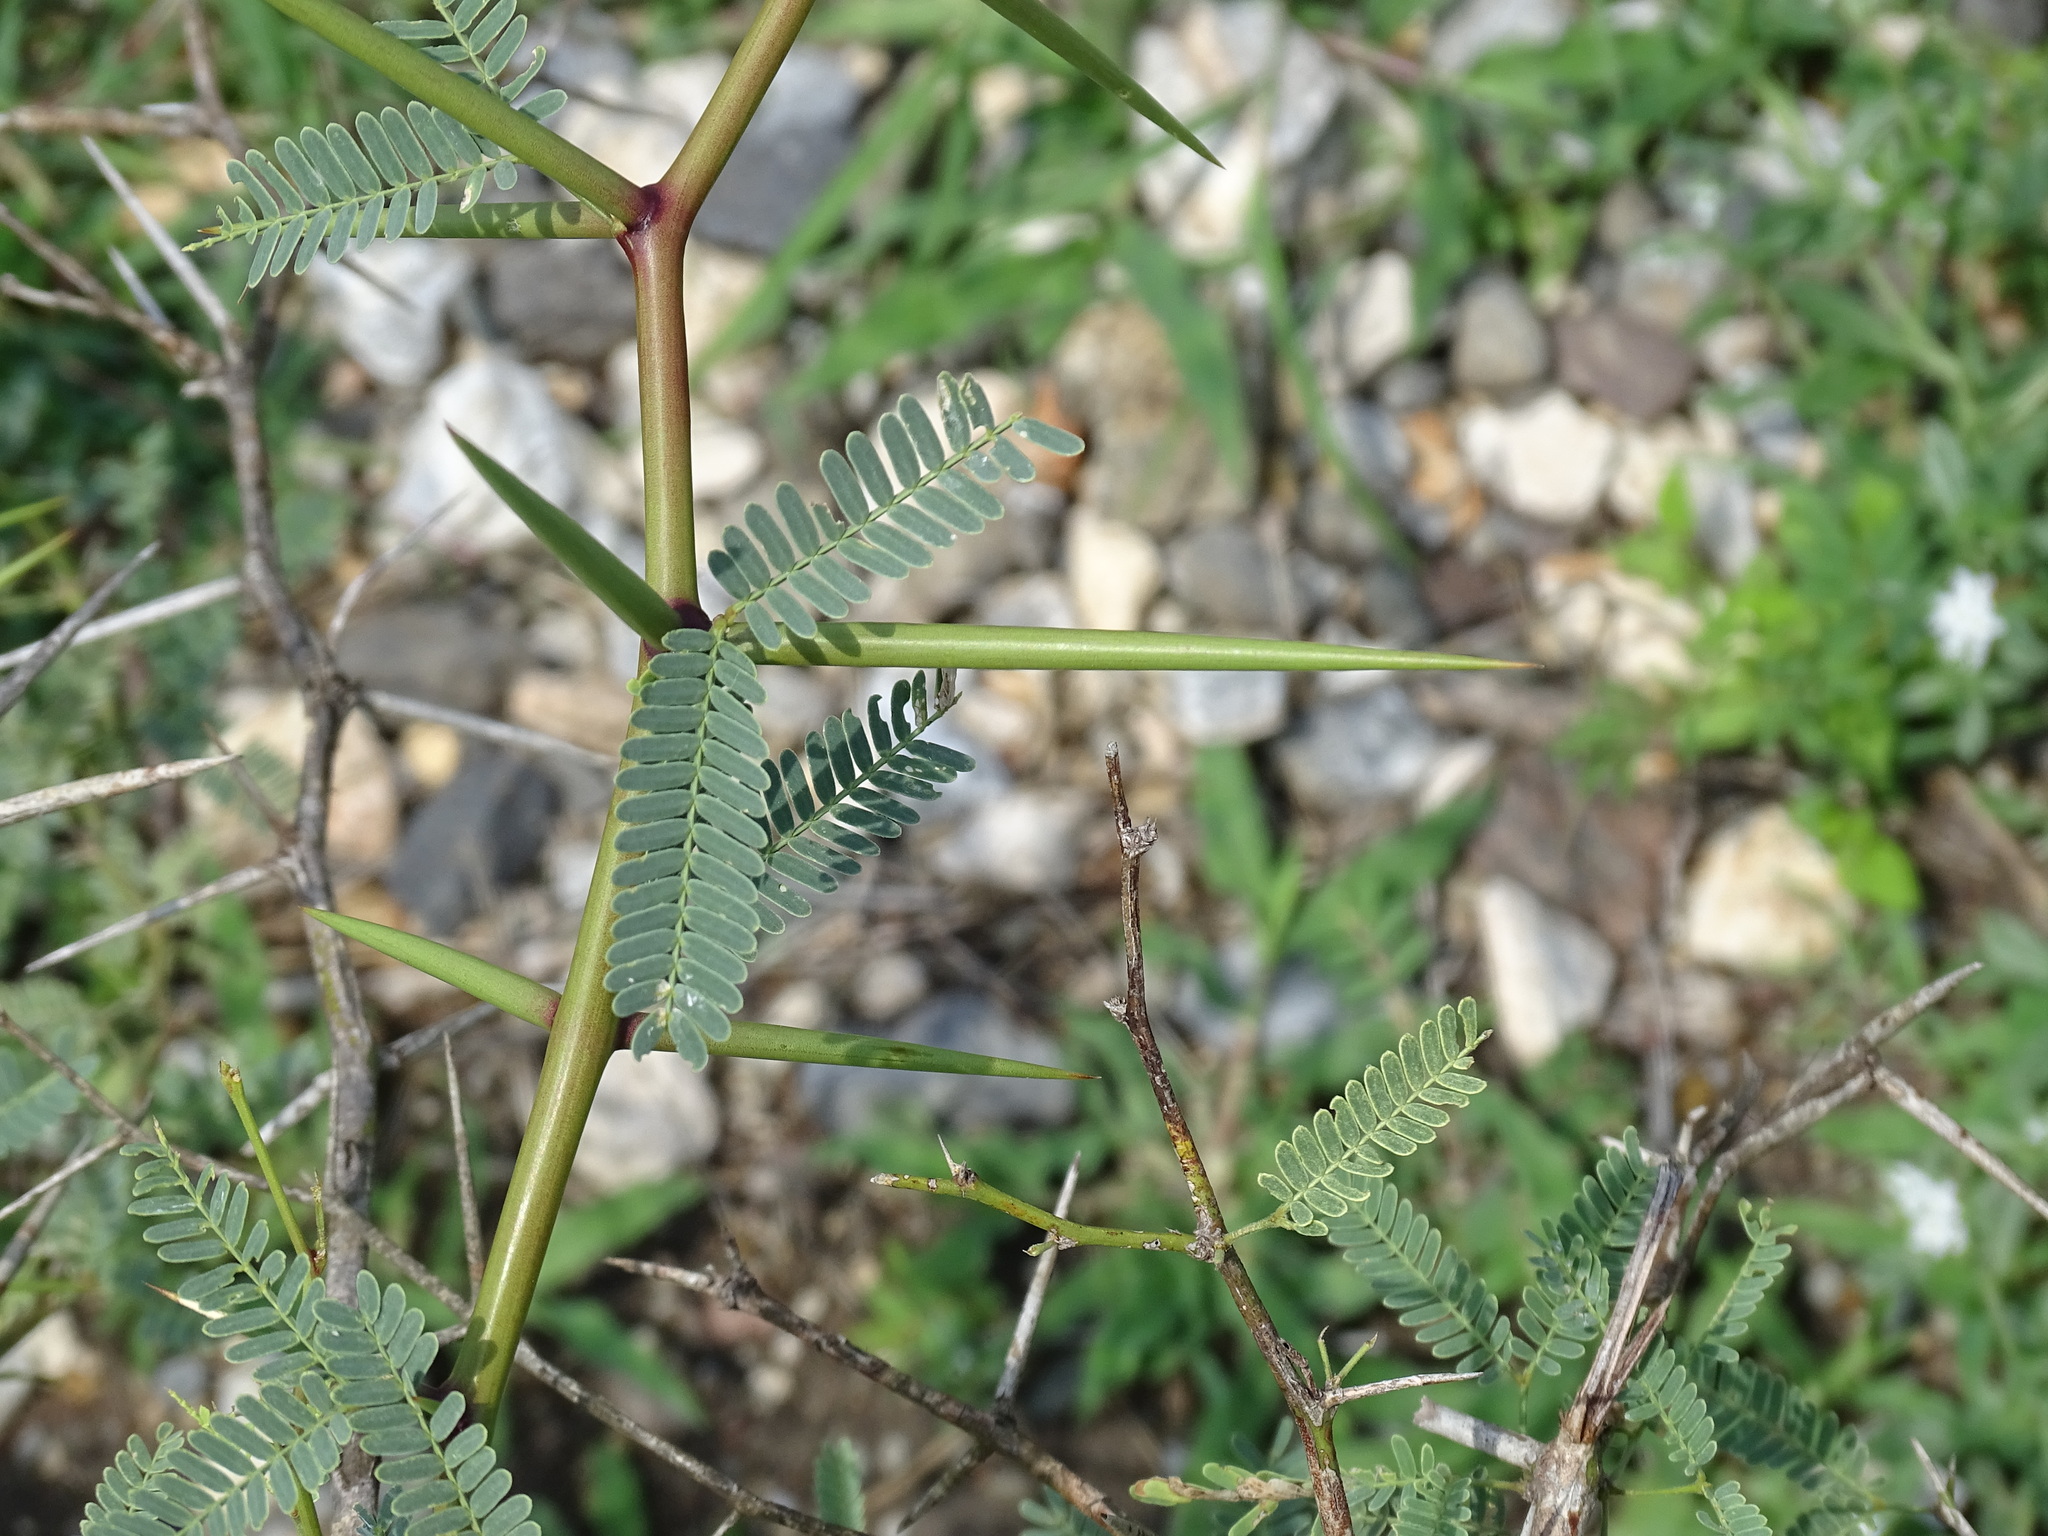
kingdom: Plantae
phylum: Tracheophyta
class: Magnoliopsida
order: Fabales
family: Fabaceae
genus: Prosopis
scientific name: Prosopis laevigata
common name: Smooth mesquite
